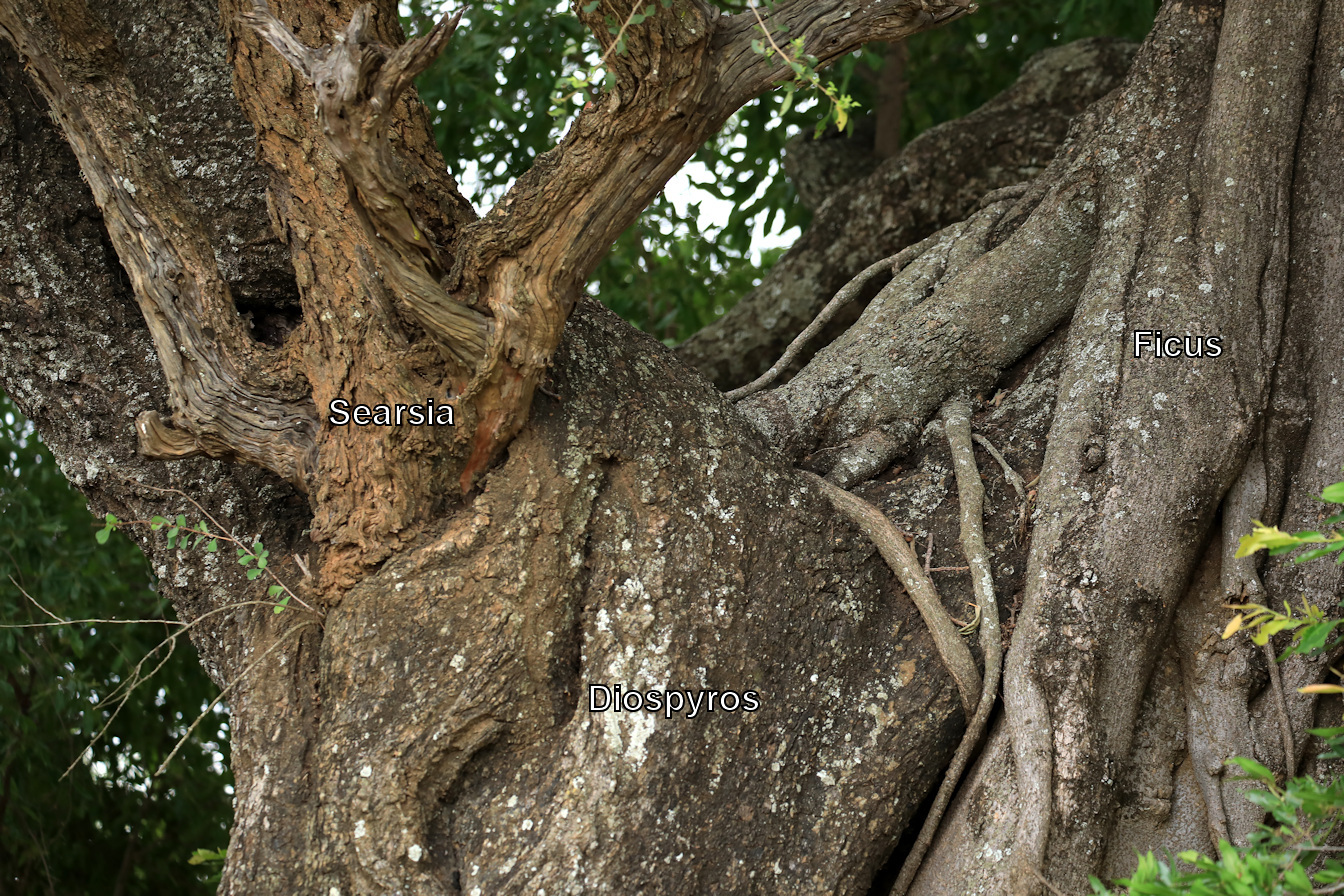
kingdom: Plantae
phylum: Tracheophyta
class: Magnoliopsida
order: Ericales
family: Ebenaceae
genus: Diospyros
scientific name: Diospyros mespiliformis
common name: Ebony diospyros
